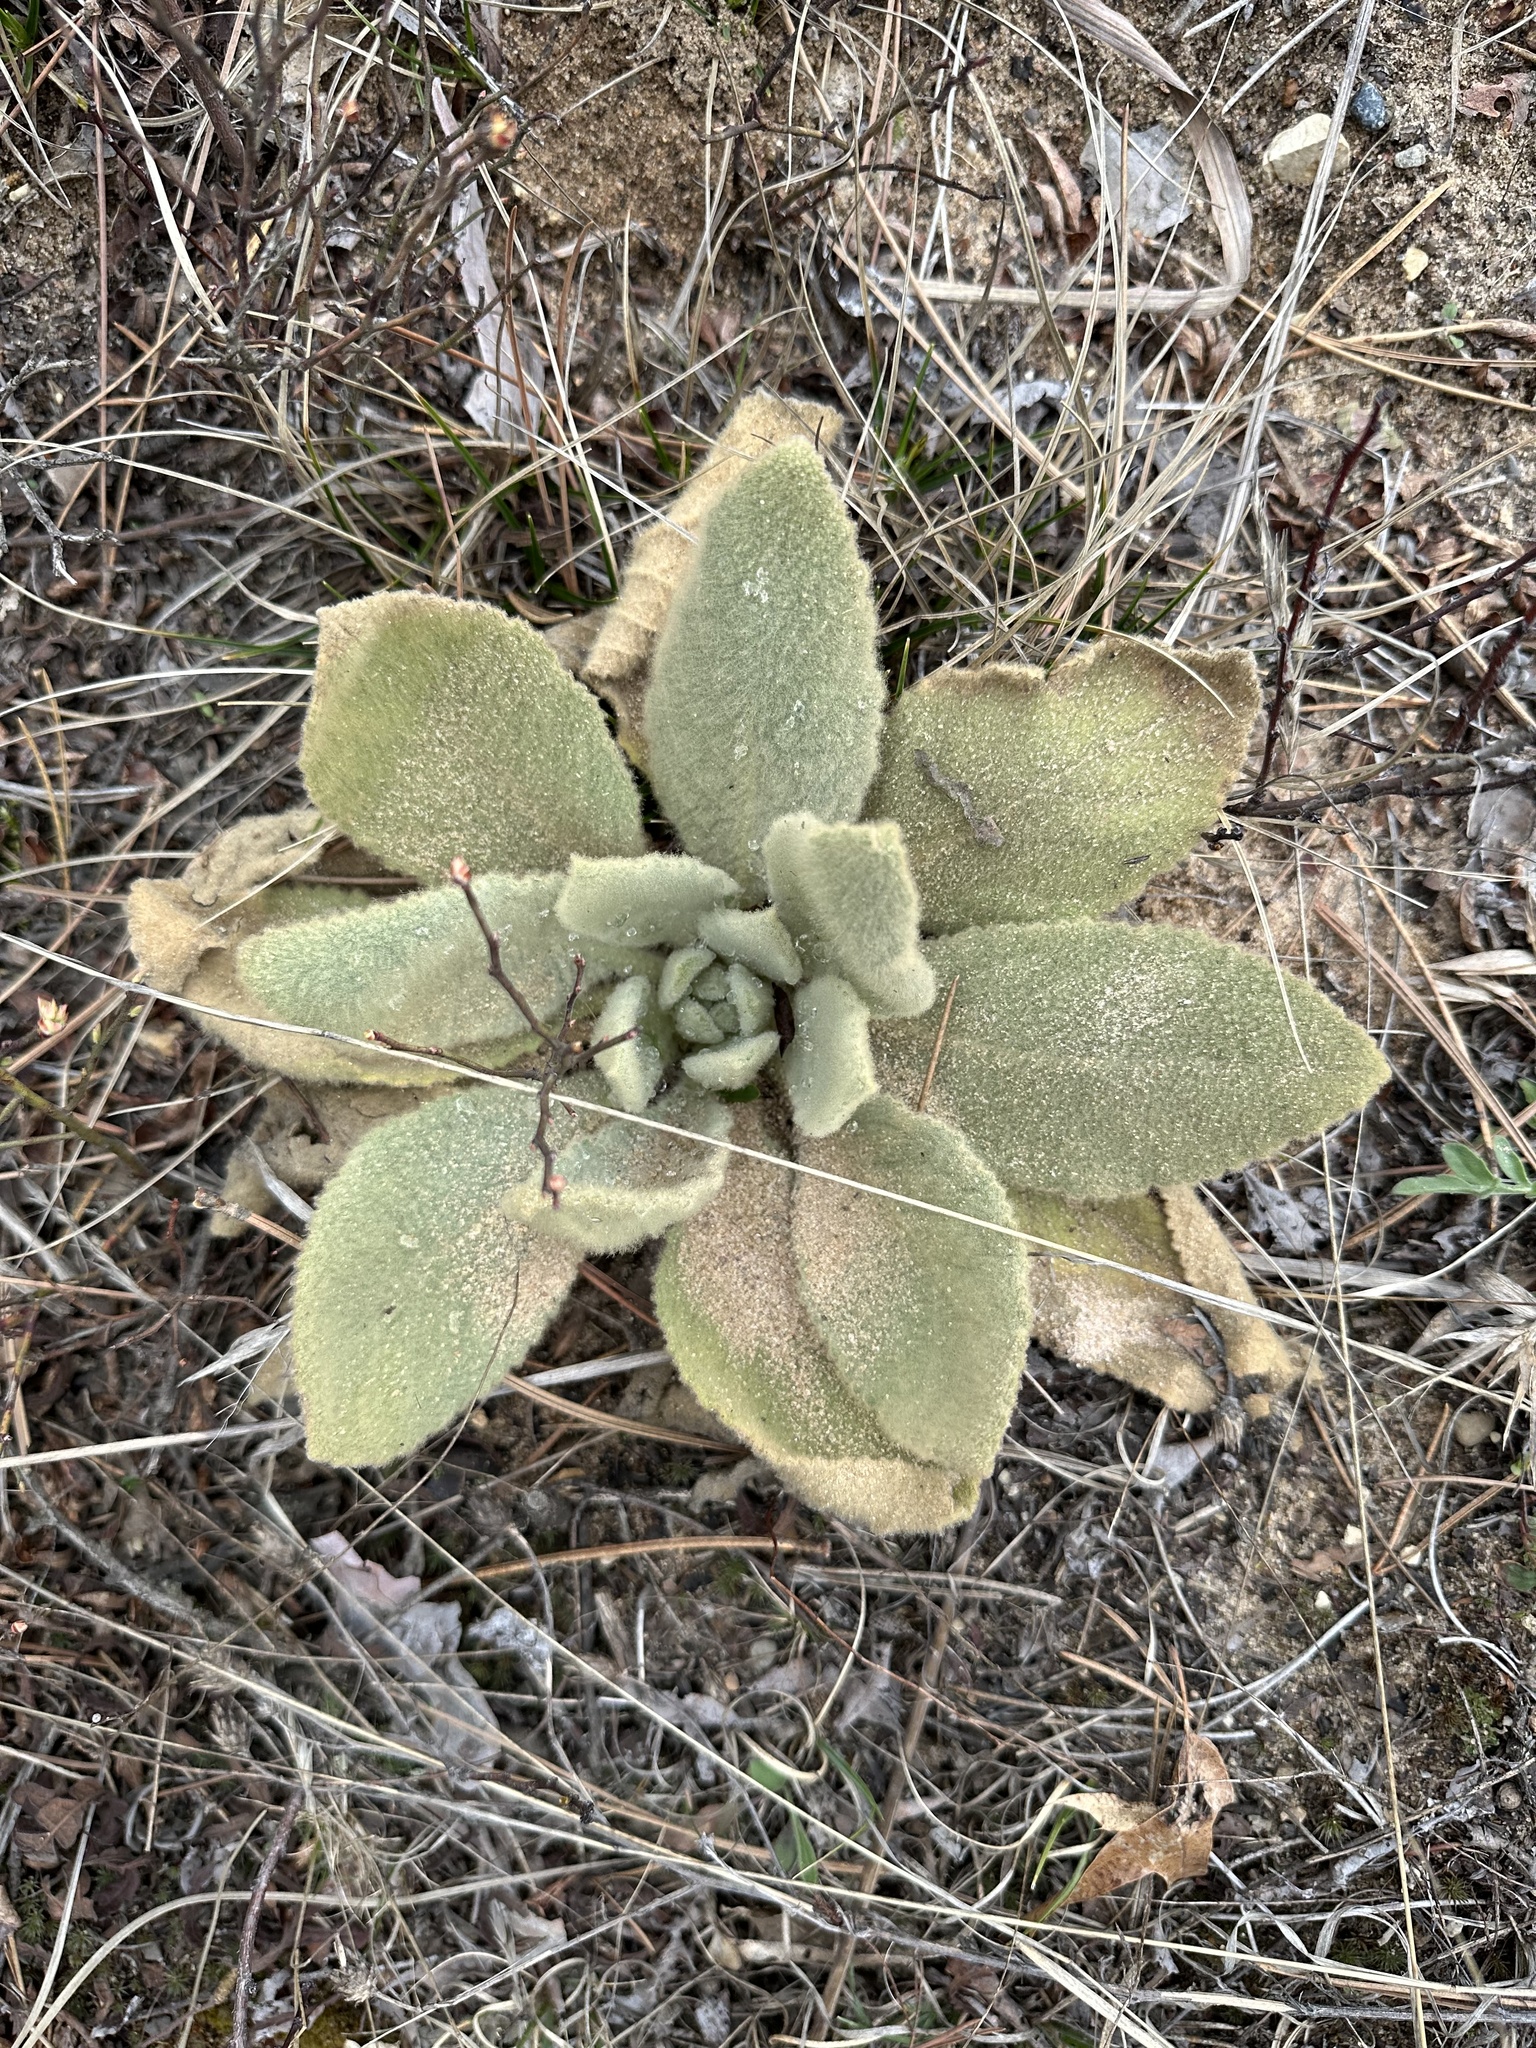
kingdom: Plantae
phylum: Tracheophyta
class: Magnoliopsida
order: Lamiales
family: Scrophulariaceae
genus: Verbascum
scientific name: Verbascum thapsus
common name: Common mullein
